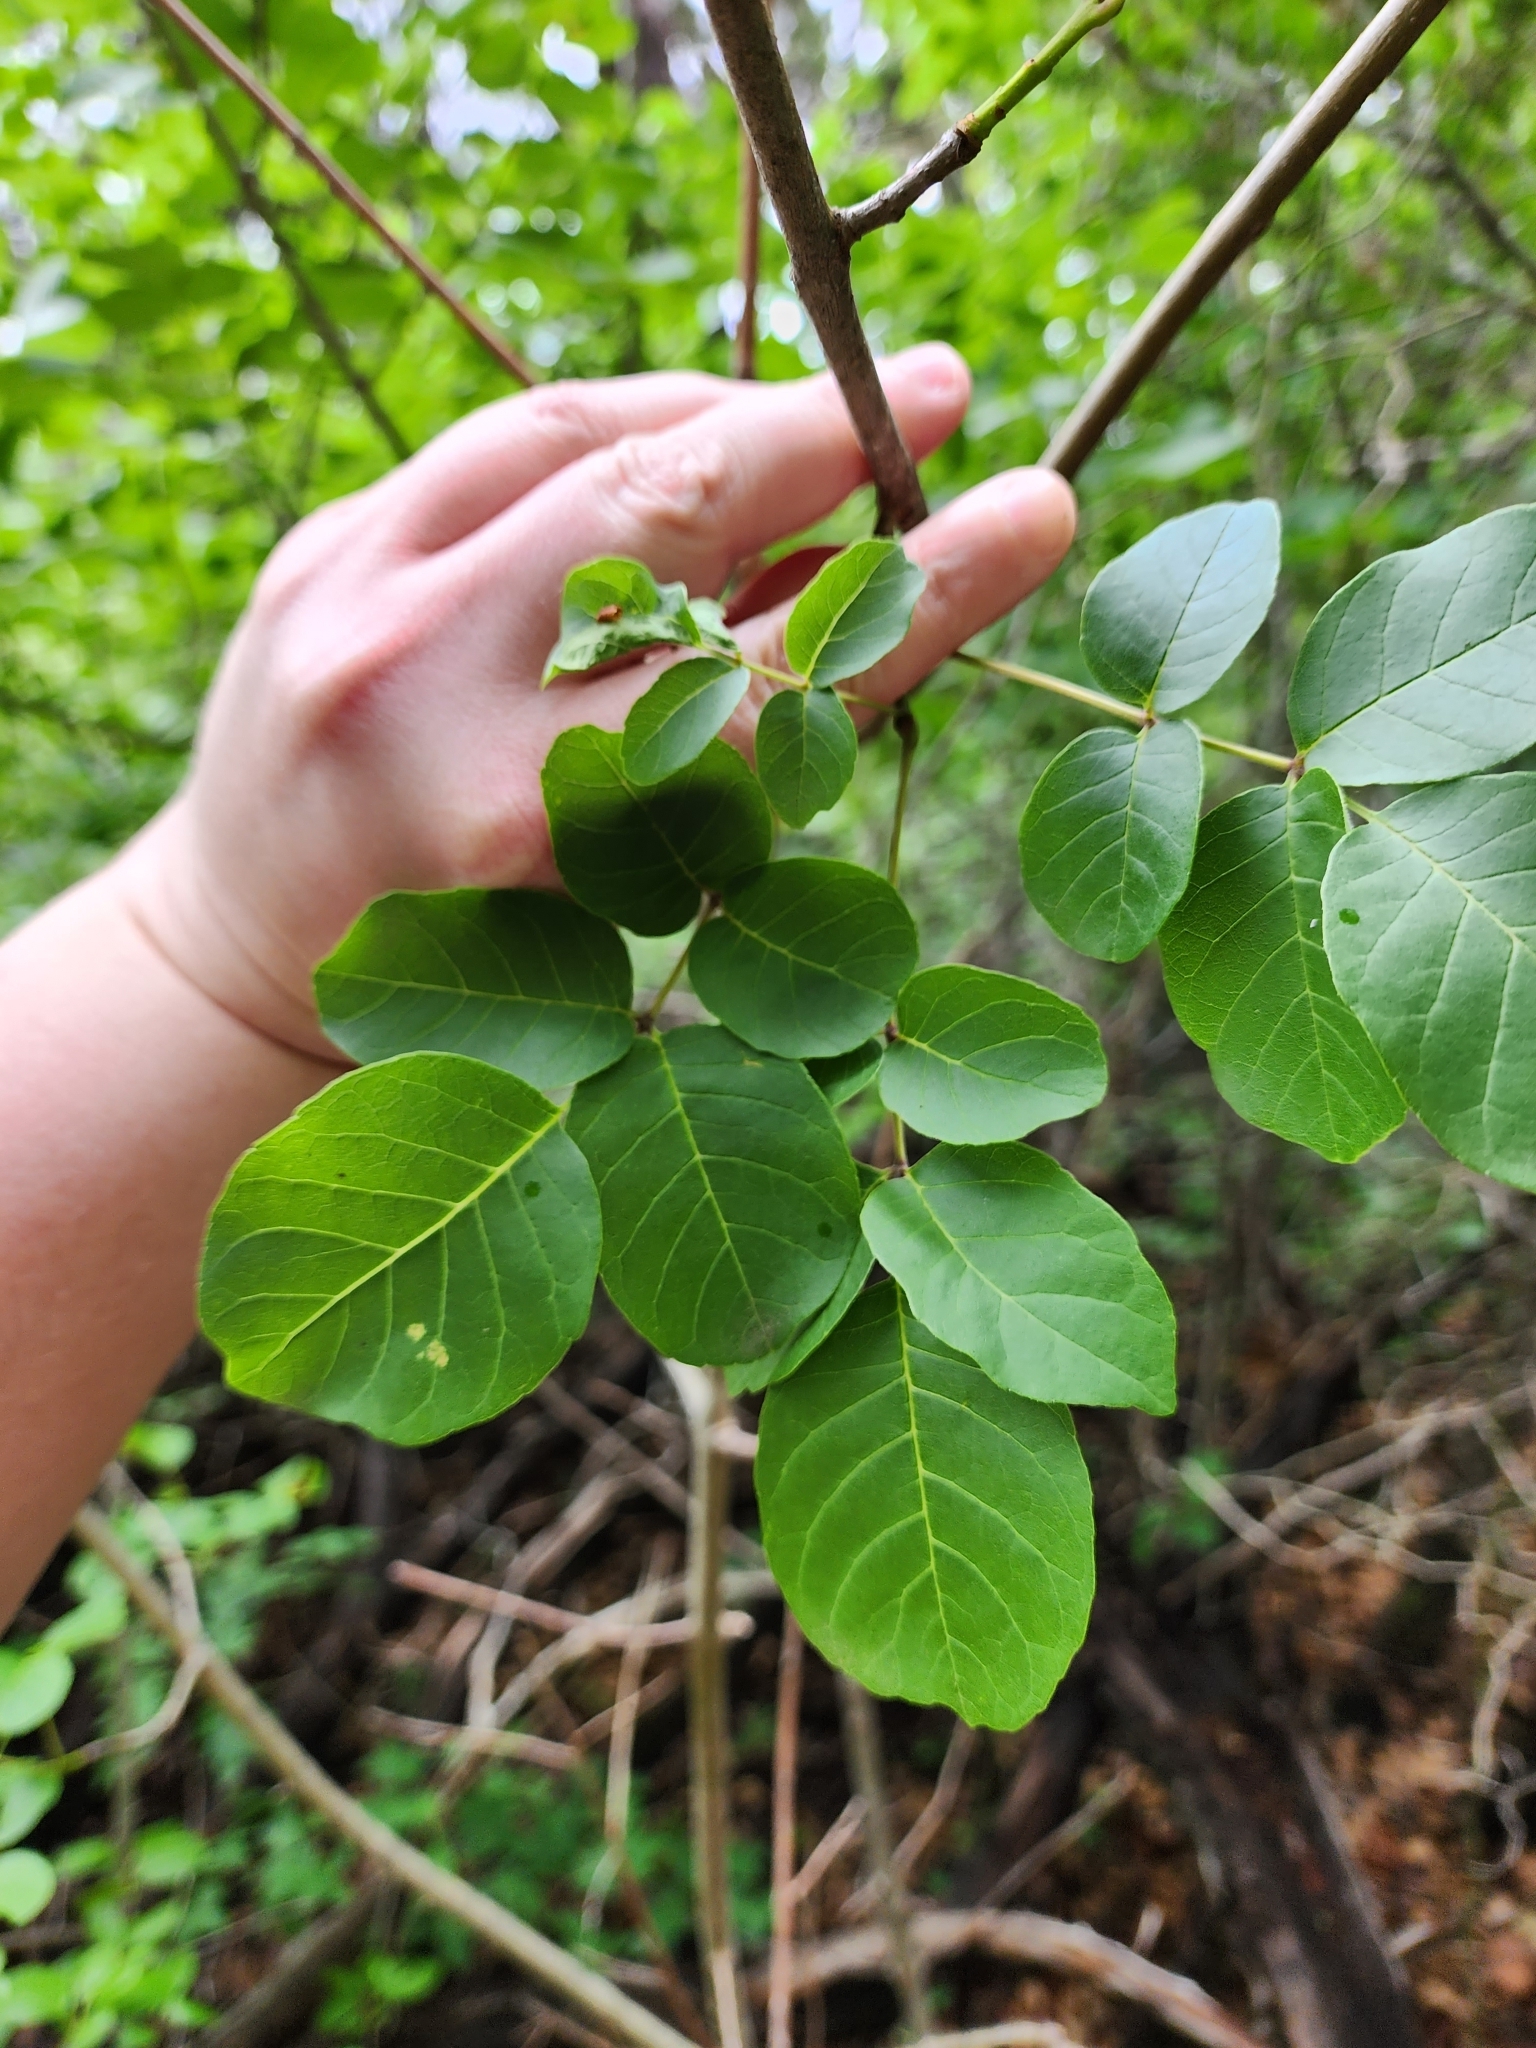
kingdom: Plantae
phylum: Tracheophyta
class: Magnoliopsida
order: Lamiales
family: Oleaceae
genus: Fraxinus
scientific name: Fraxinus albicans
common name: Texas ash
